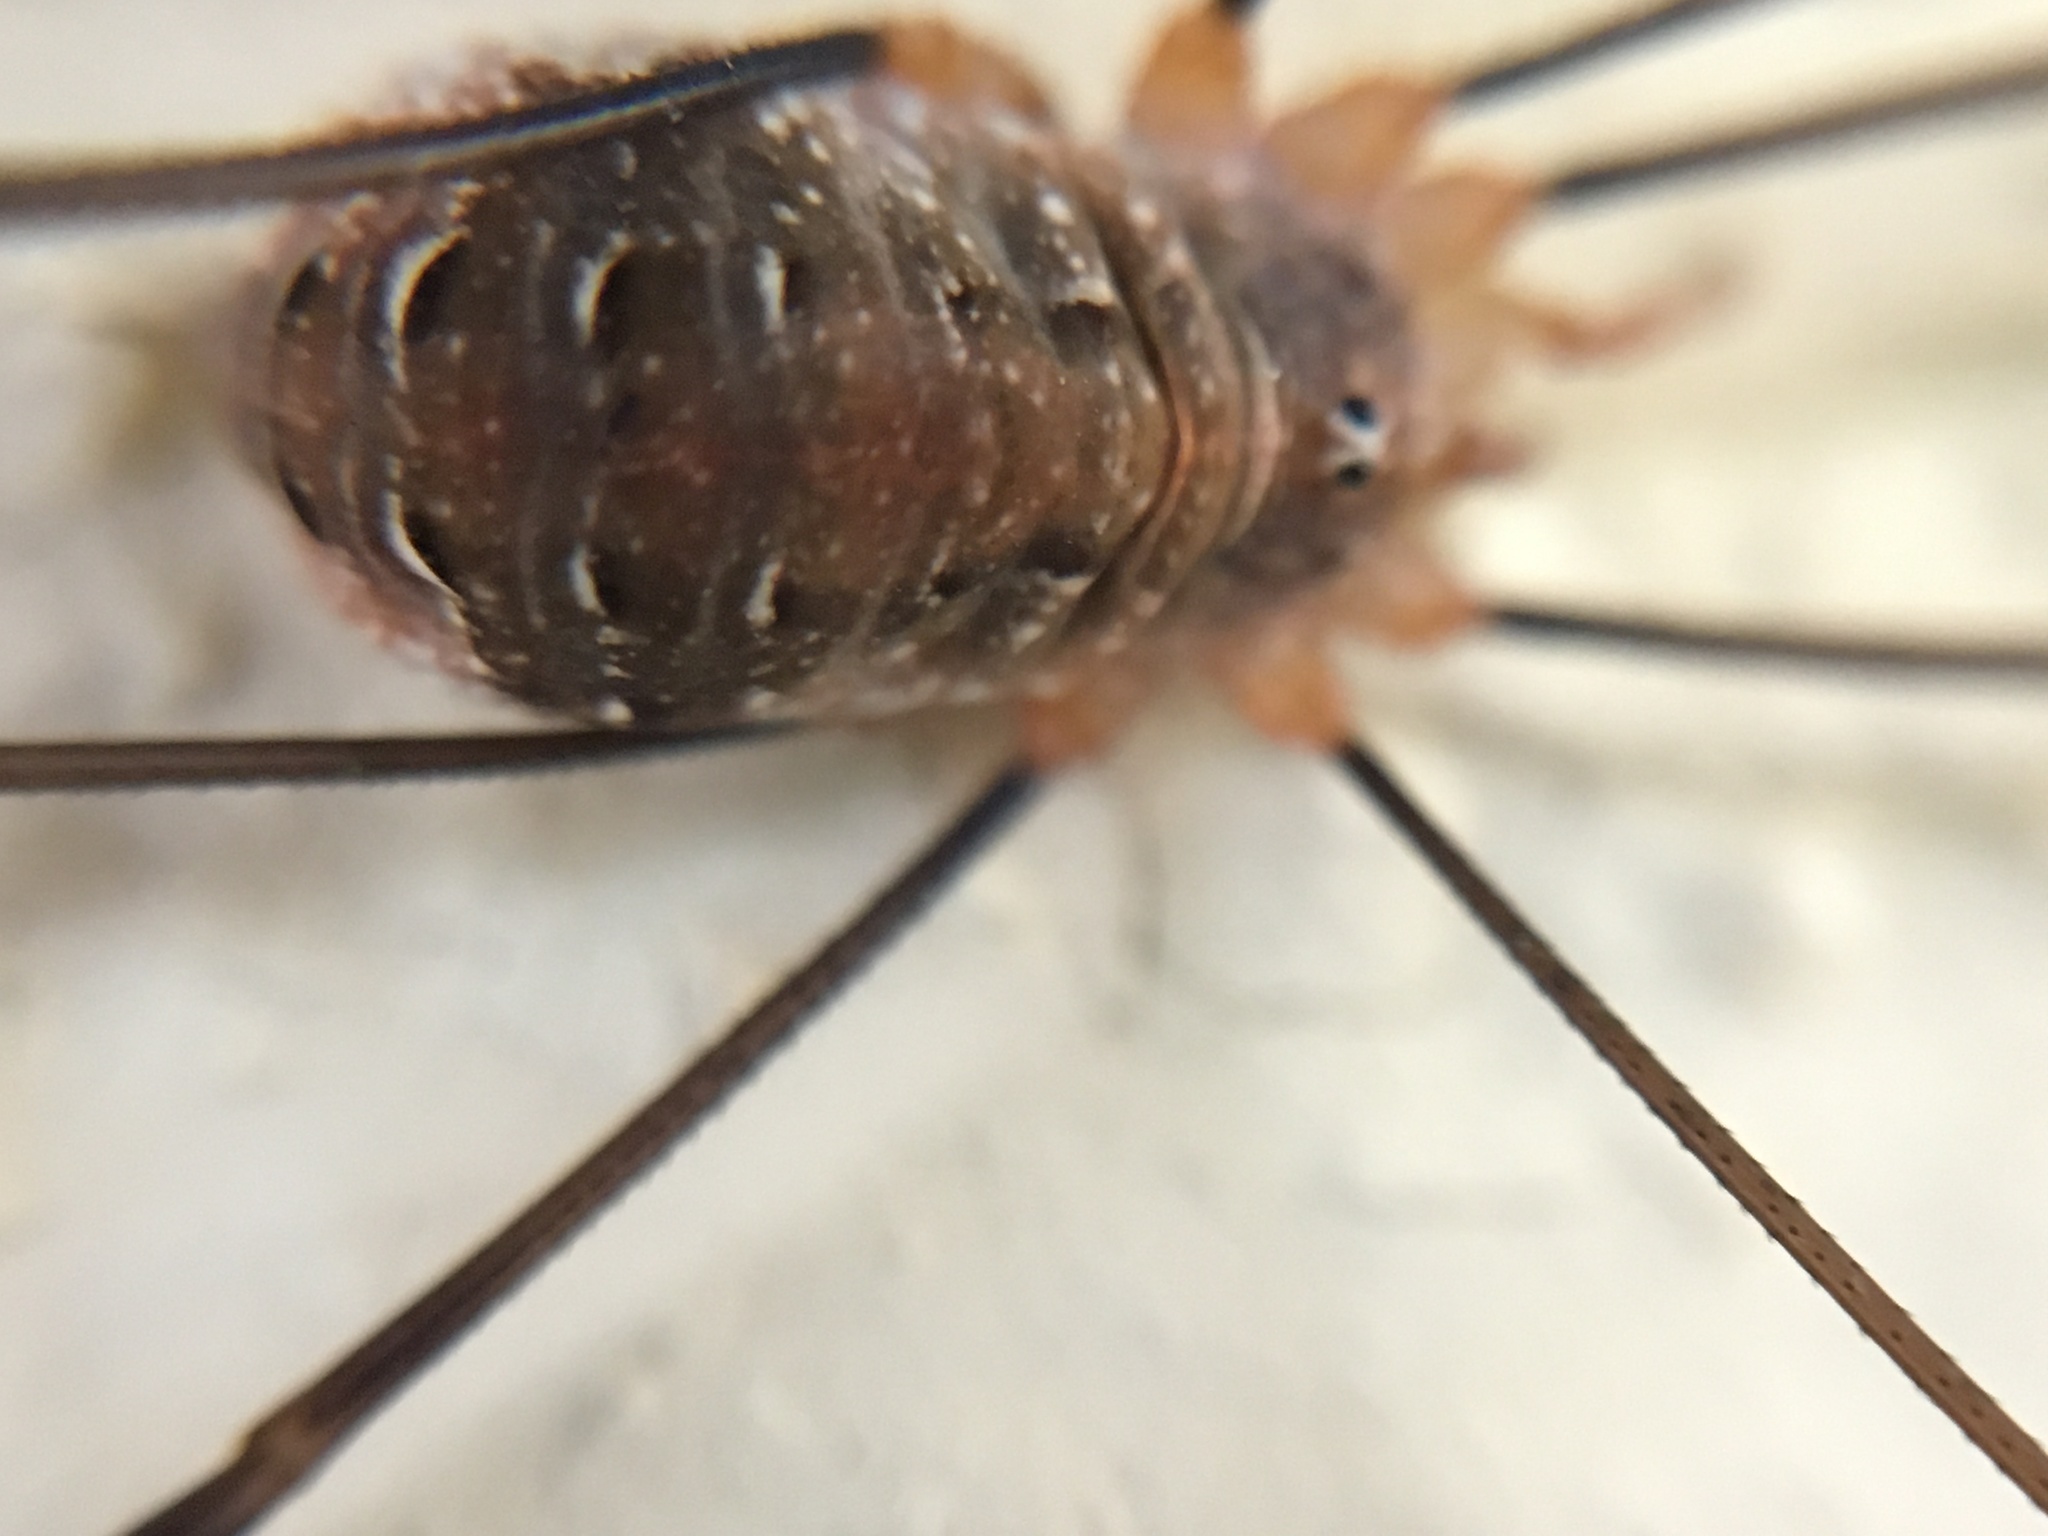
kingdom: Animalia
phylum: Arthropoda
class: Arachnida
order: Opiliones
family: Phalangiidae
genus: Opilio
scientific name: Opilio canestrinii
